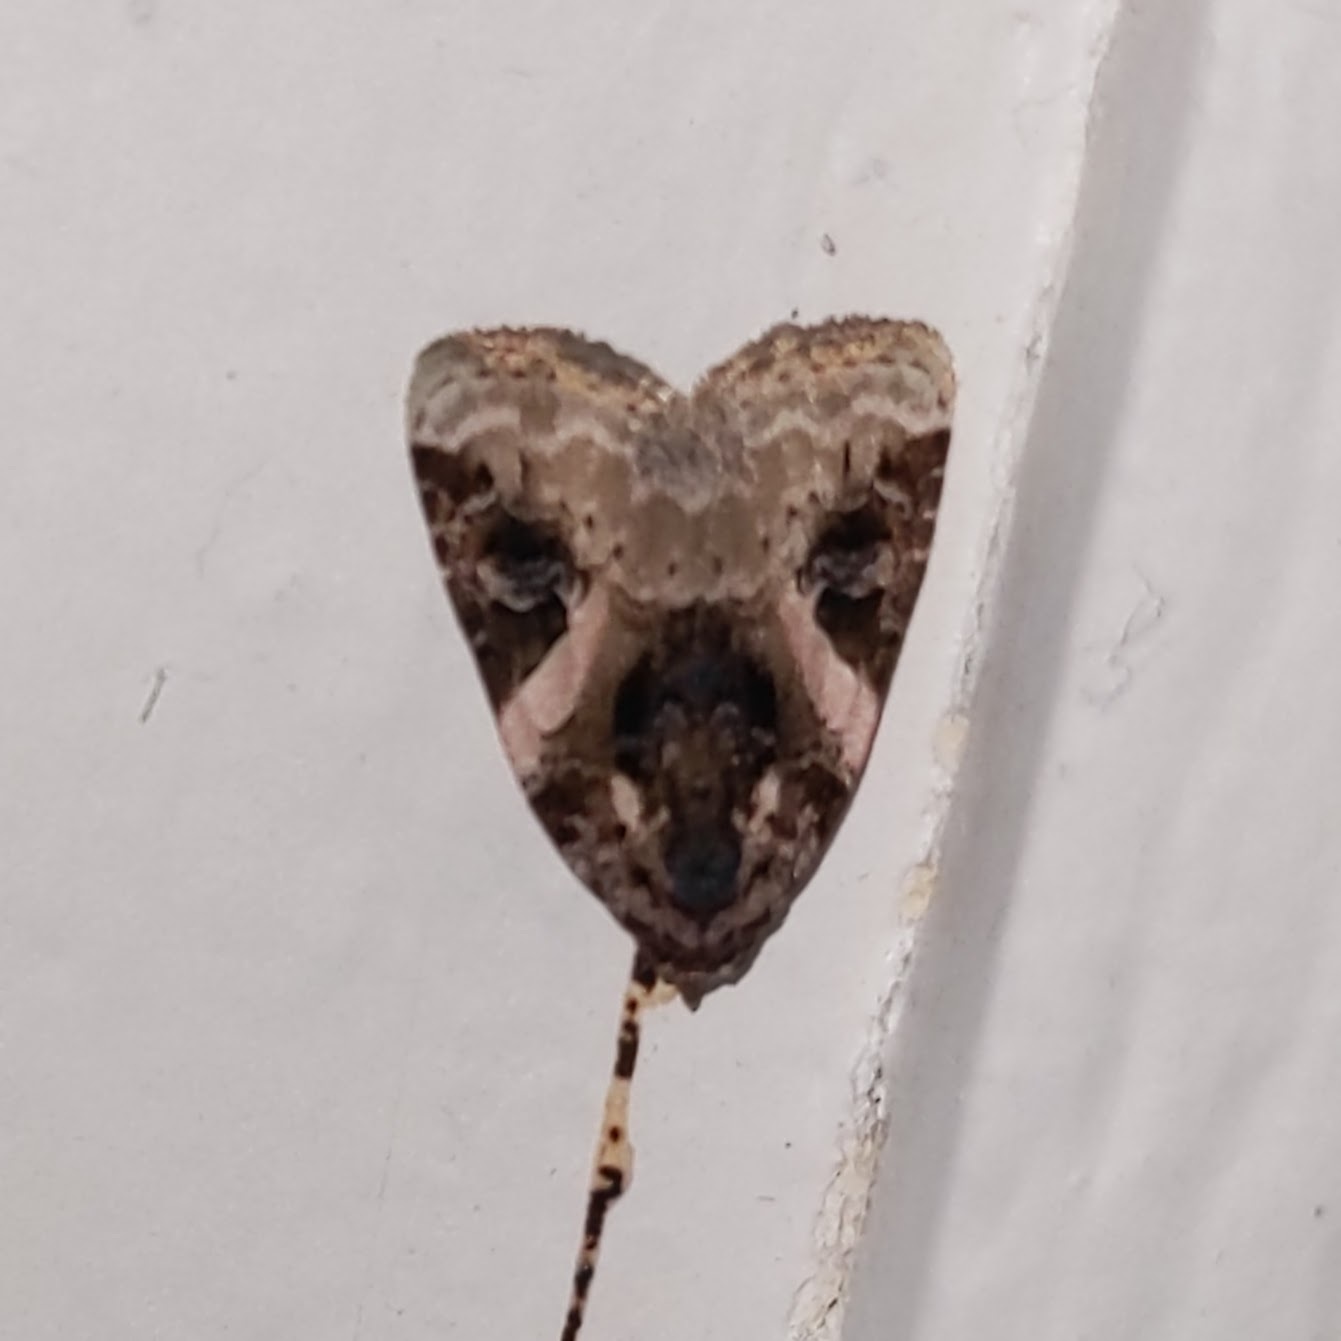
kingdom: Animalia
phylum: Arthropoda
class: Insecta
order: Lepidoptera
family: Noctuidae
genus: Pseudeustrotia
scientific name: Pseudeustrotia carneola
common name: Pink-barred lithacodia moth
